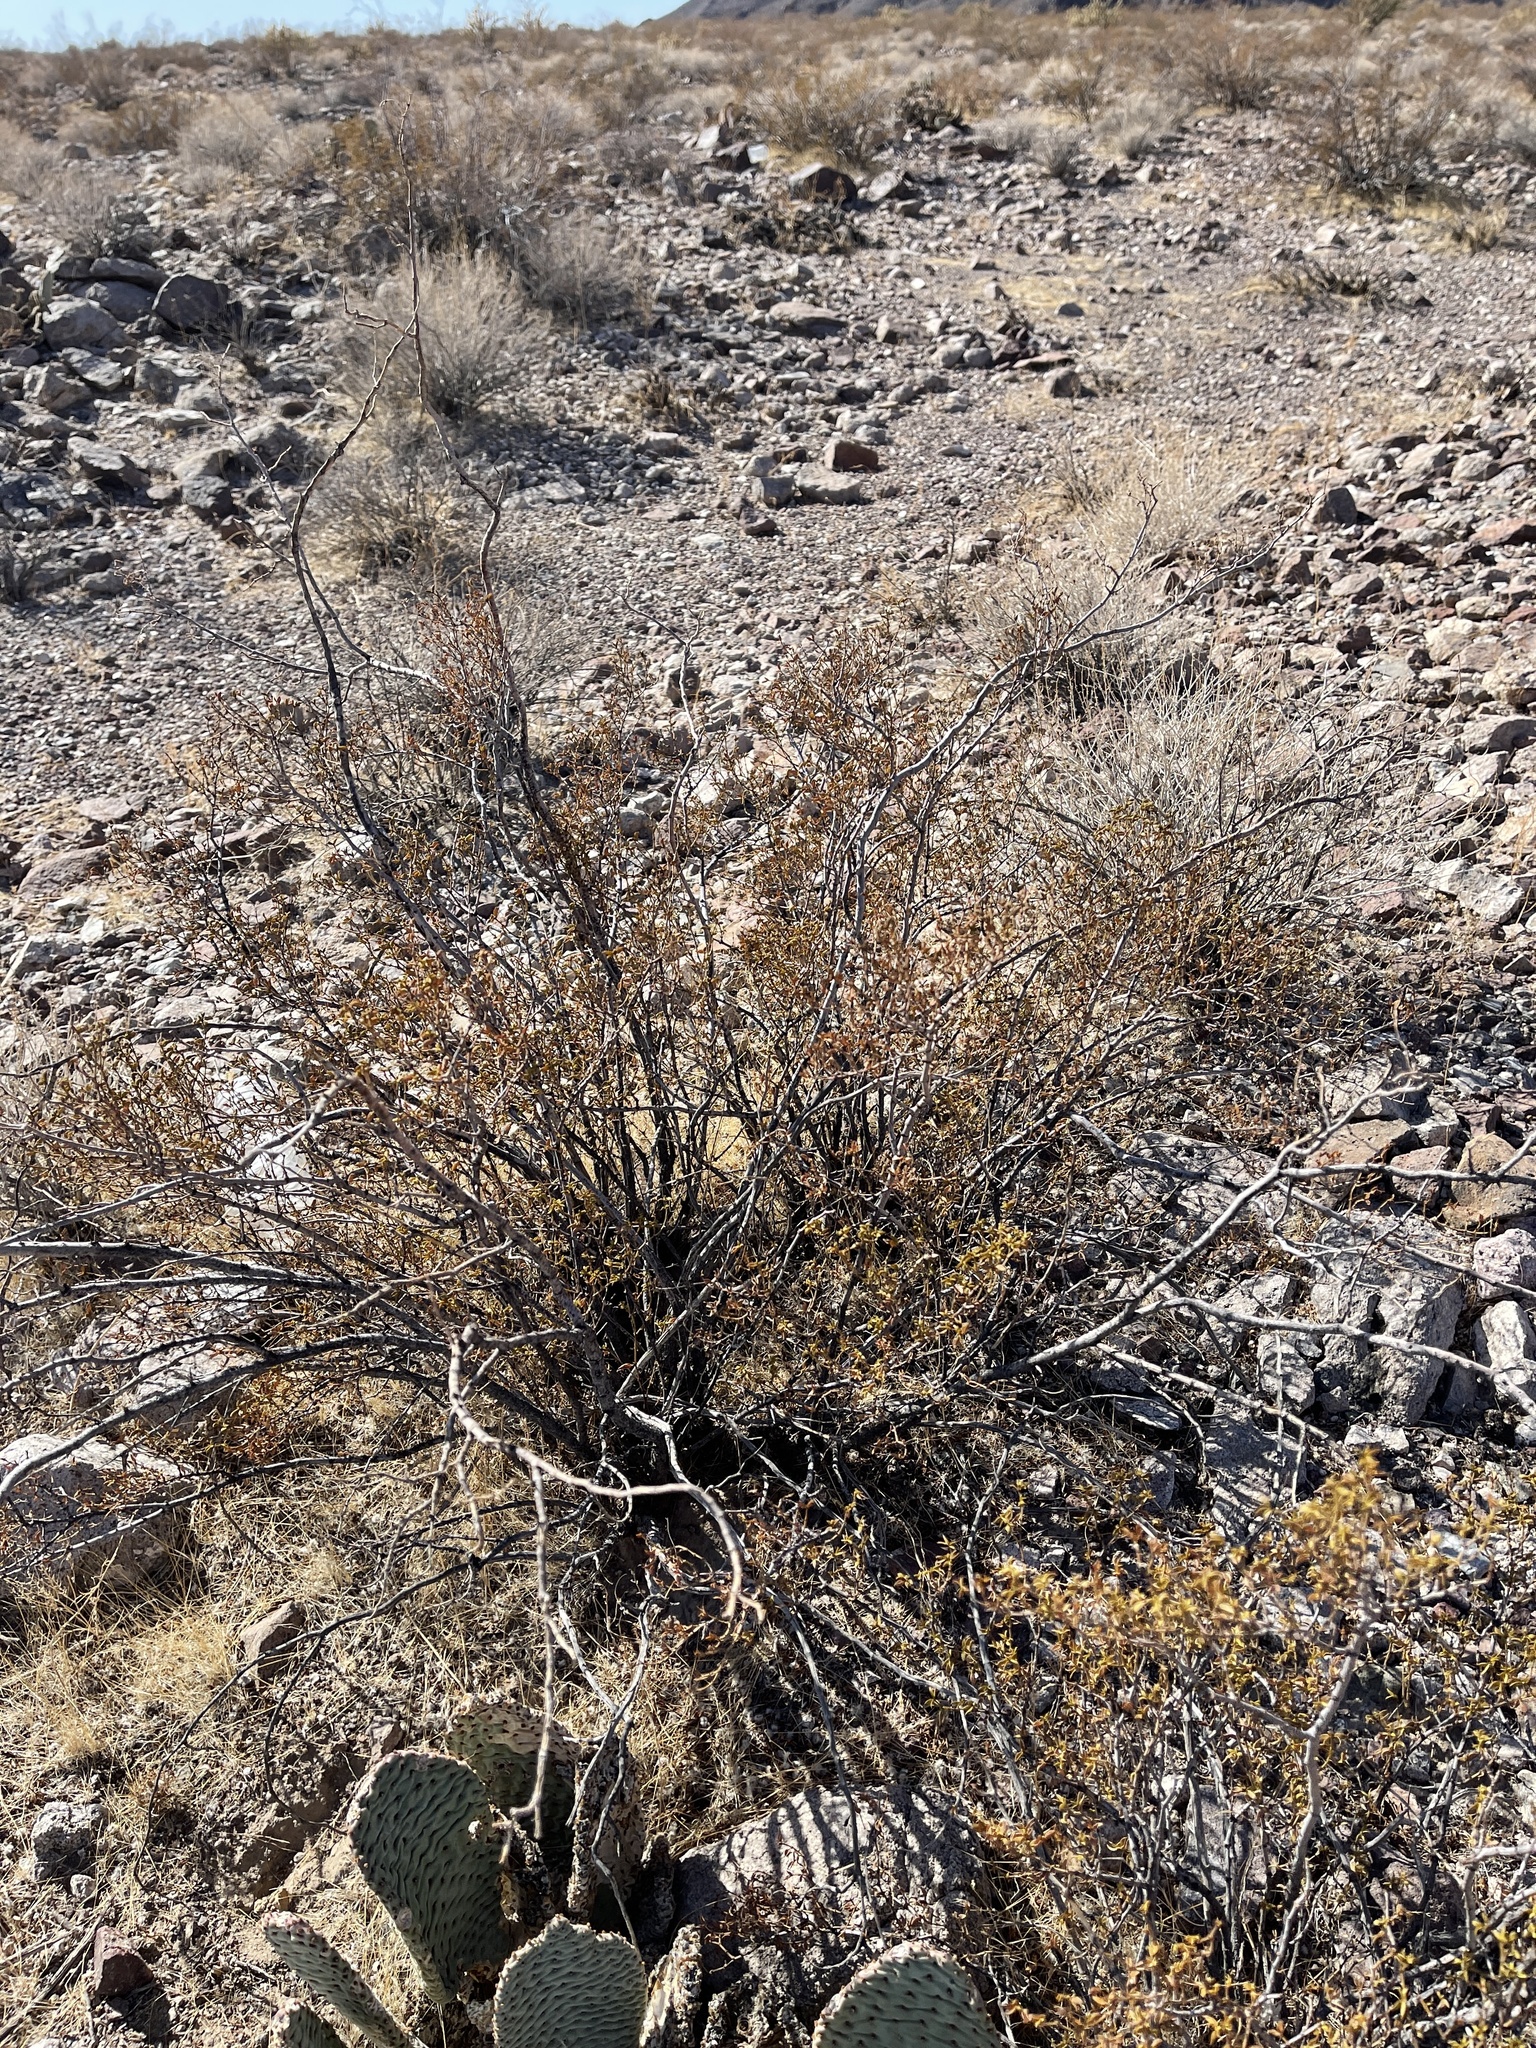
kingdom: Plantae
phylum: Tracheophyta
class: Magnoliopsida
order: Zygophyllales
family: Zygophyllaceae
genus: Larrea
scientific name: Larrea tridentata
